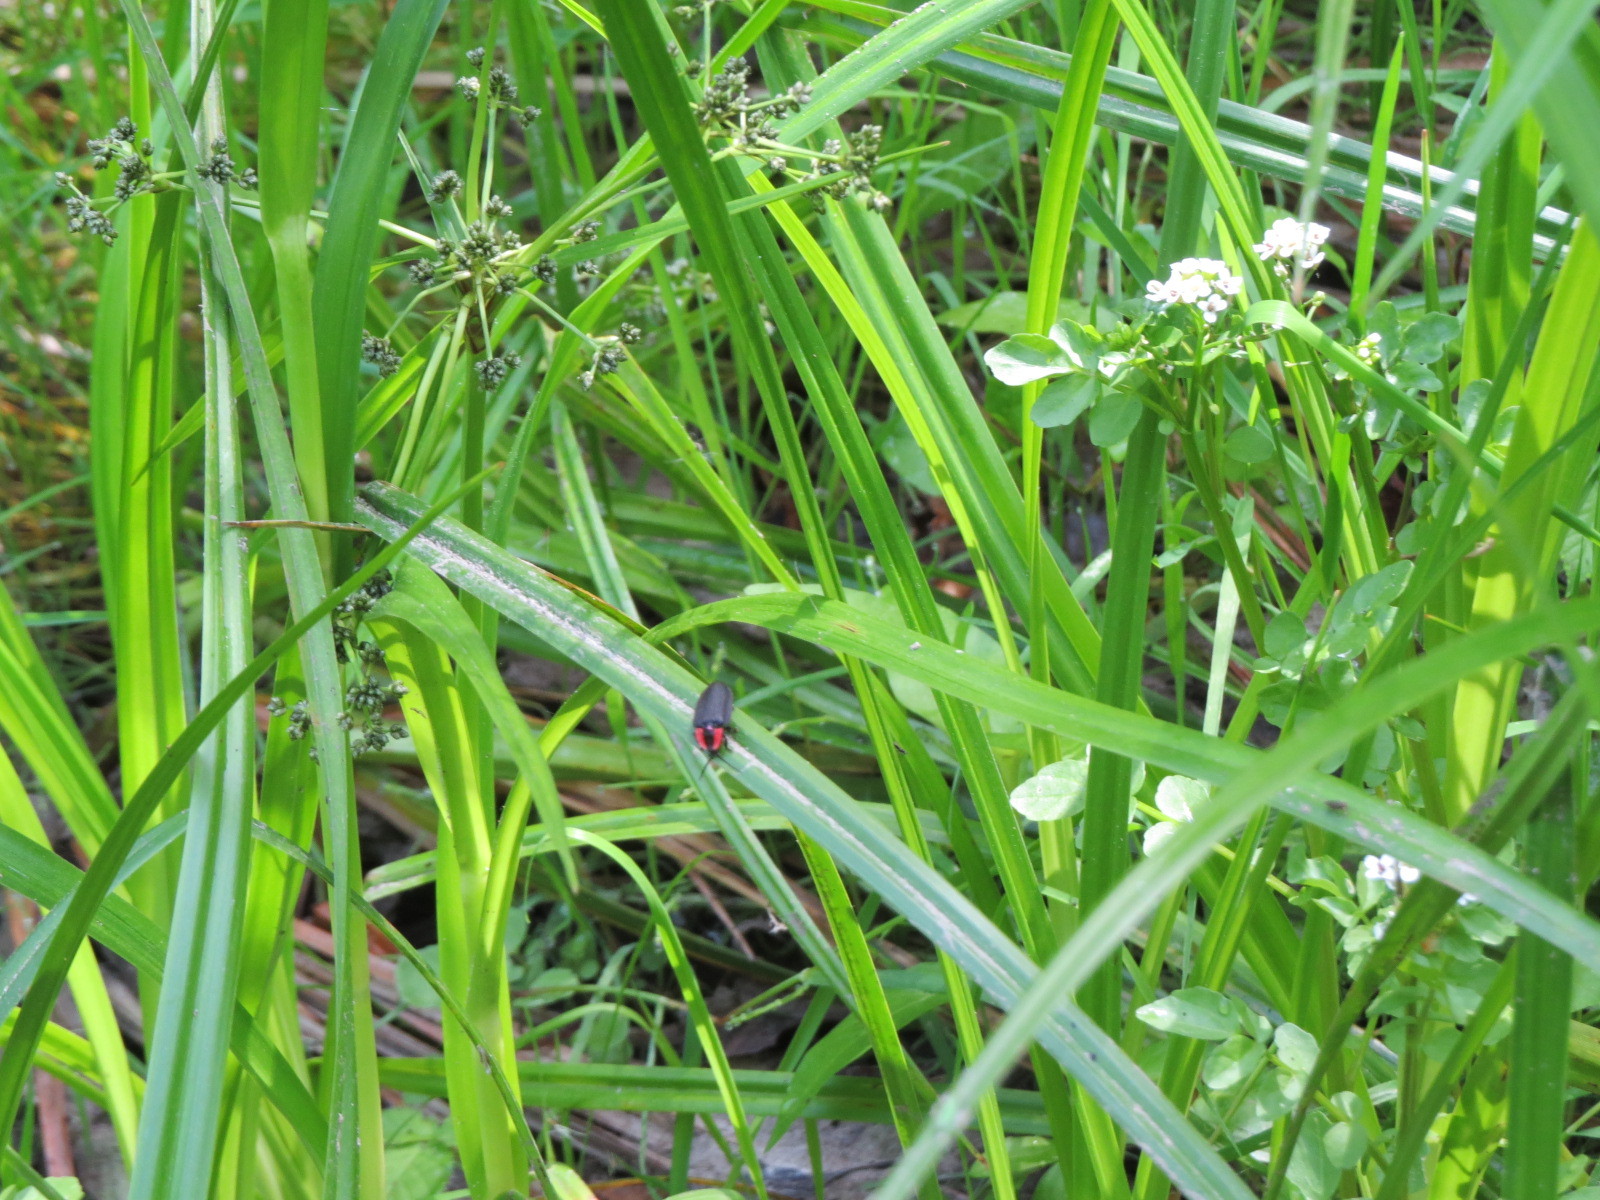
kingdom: Animalia
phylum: Arthropoda
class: Insecta
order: Coleoptera
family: Lampyridae
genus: Photinus
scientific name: Photinus californica
